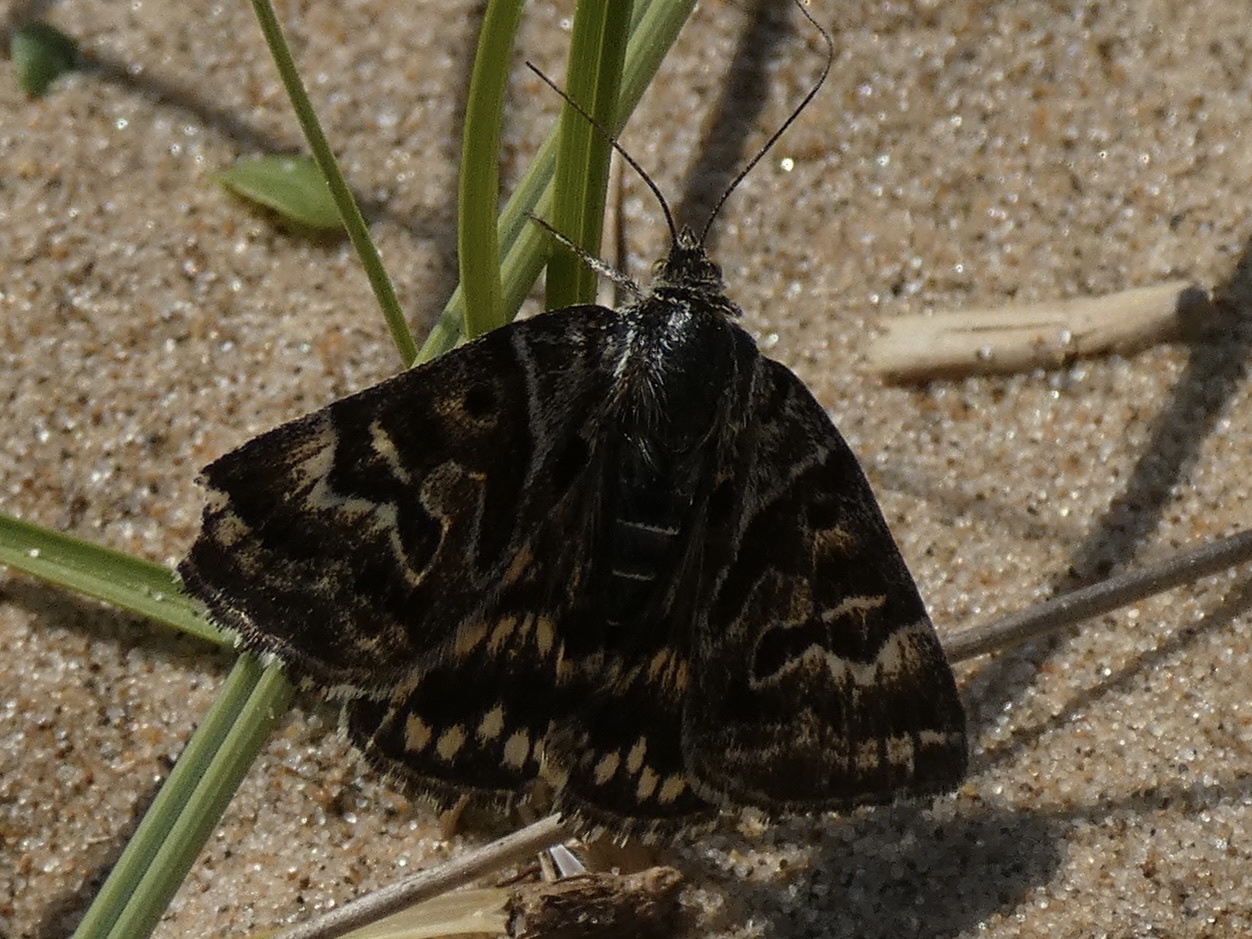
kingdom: Animalia
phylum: Arthropoda
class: Insecta
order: Lepidoptera
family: Erebidae
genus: Callistege
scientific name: Callistege mi
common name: Mother shipton
